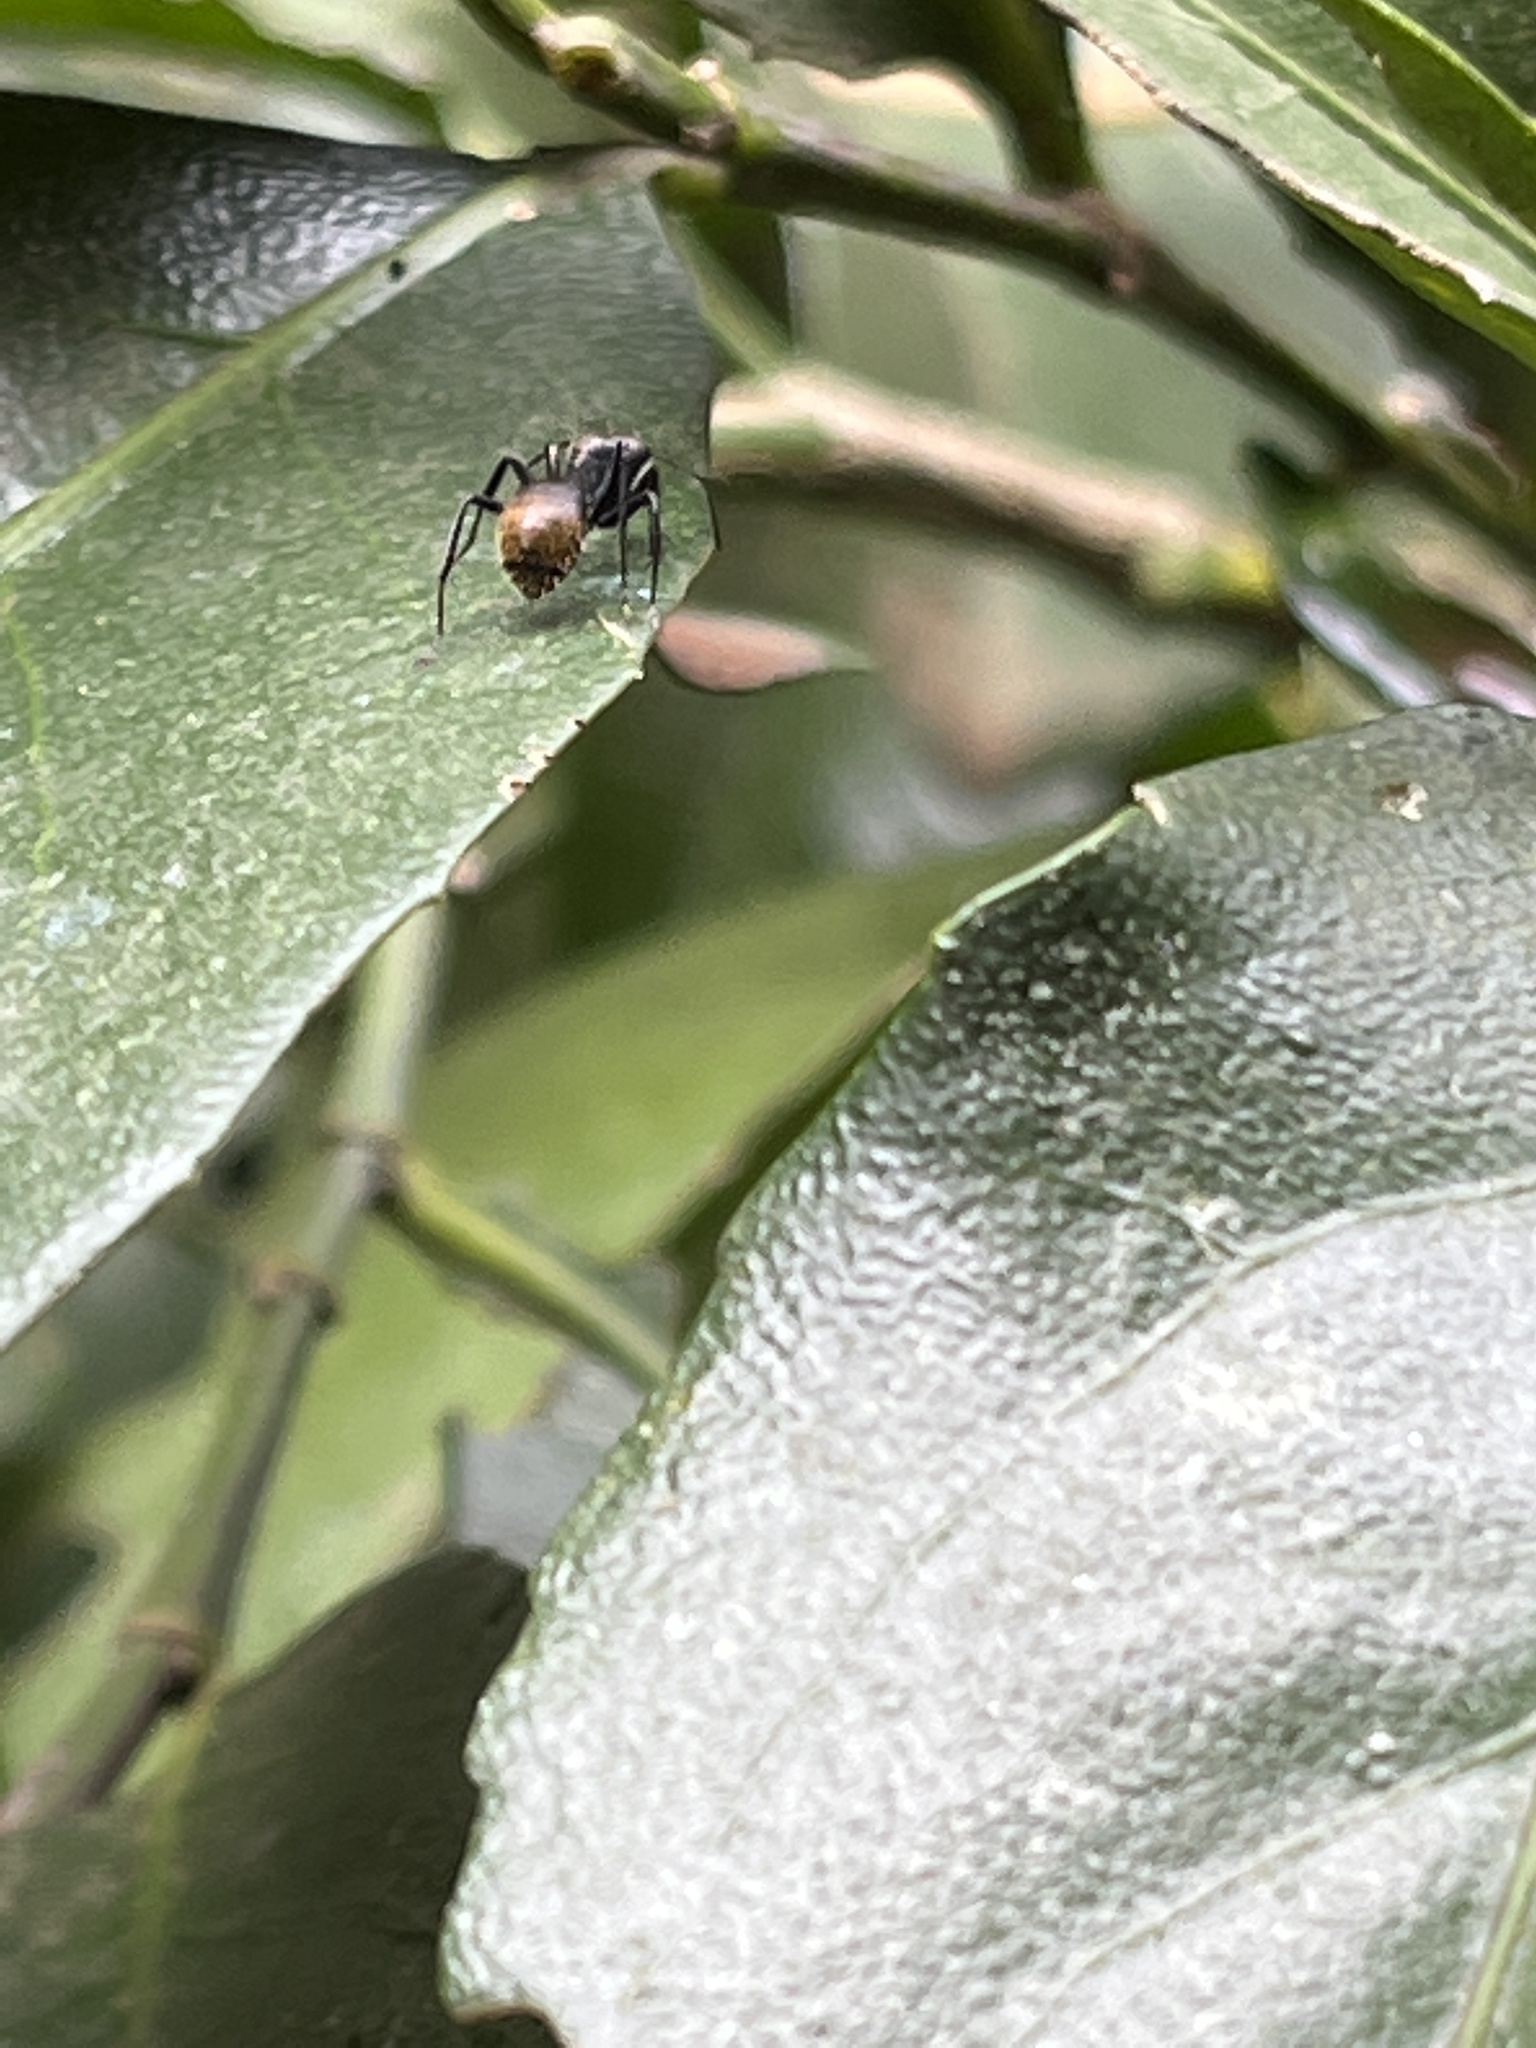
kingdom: Animalia
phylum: Arthropoda
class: Insecta
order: Hymenoptera
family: Formicidae
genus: Camponotus
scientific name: Camponotus chrysurus
